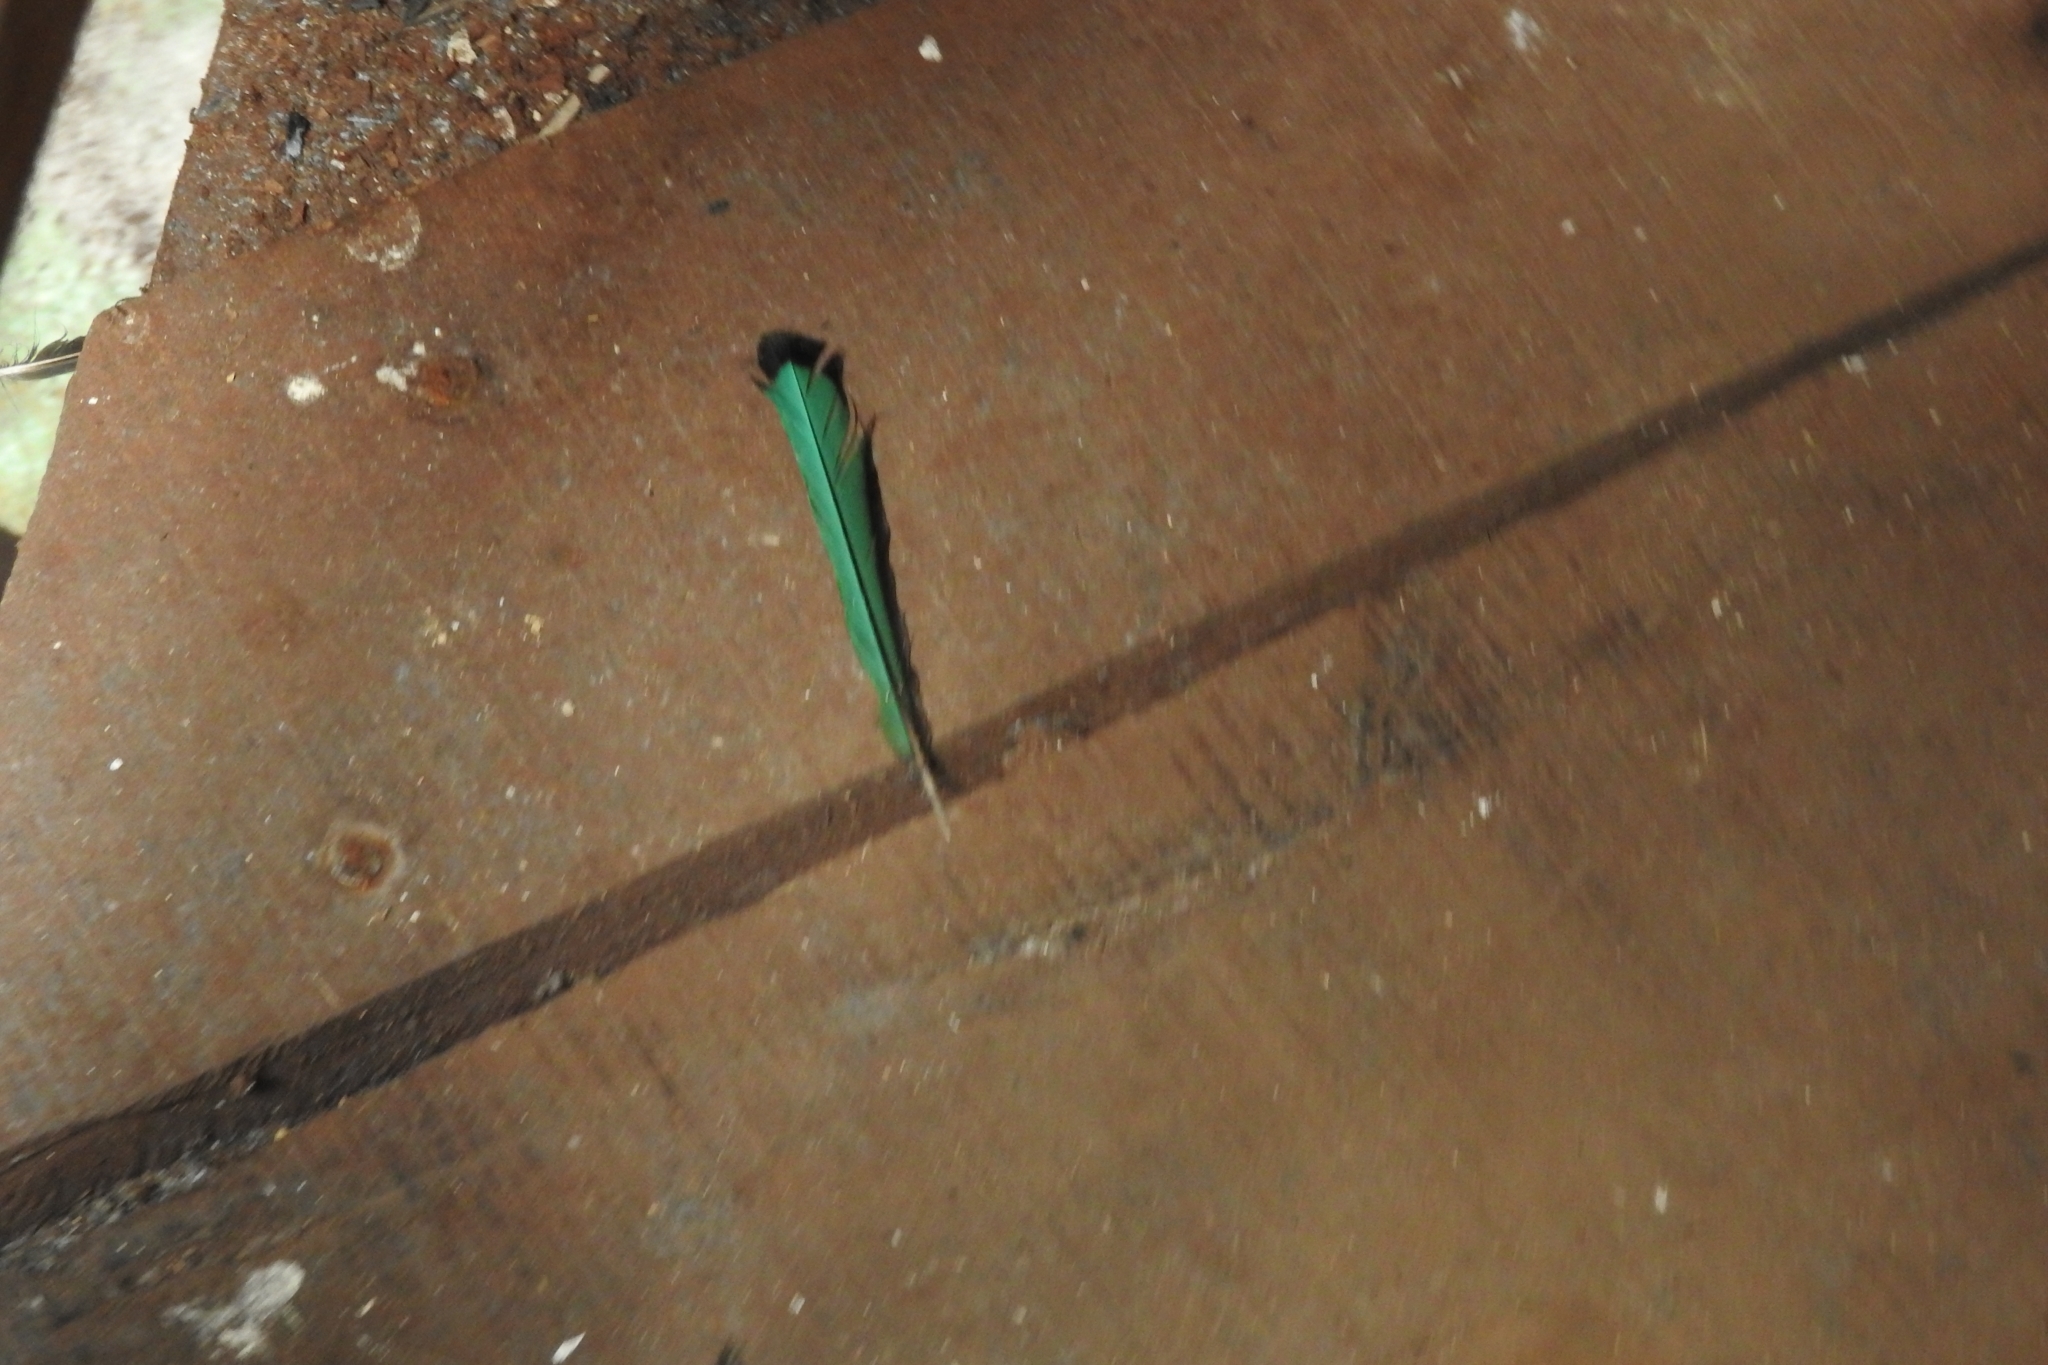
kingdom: Animalia
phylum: Chordata
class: Aves
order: Coraciiformes
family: Momotidae
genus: Eumomota
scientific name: Eumomota superciliosa
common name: Turquoise-browed motmot
